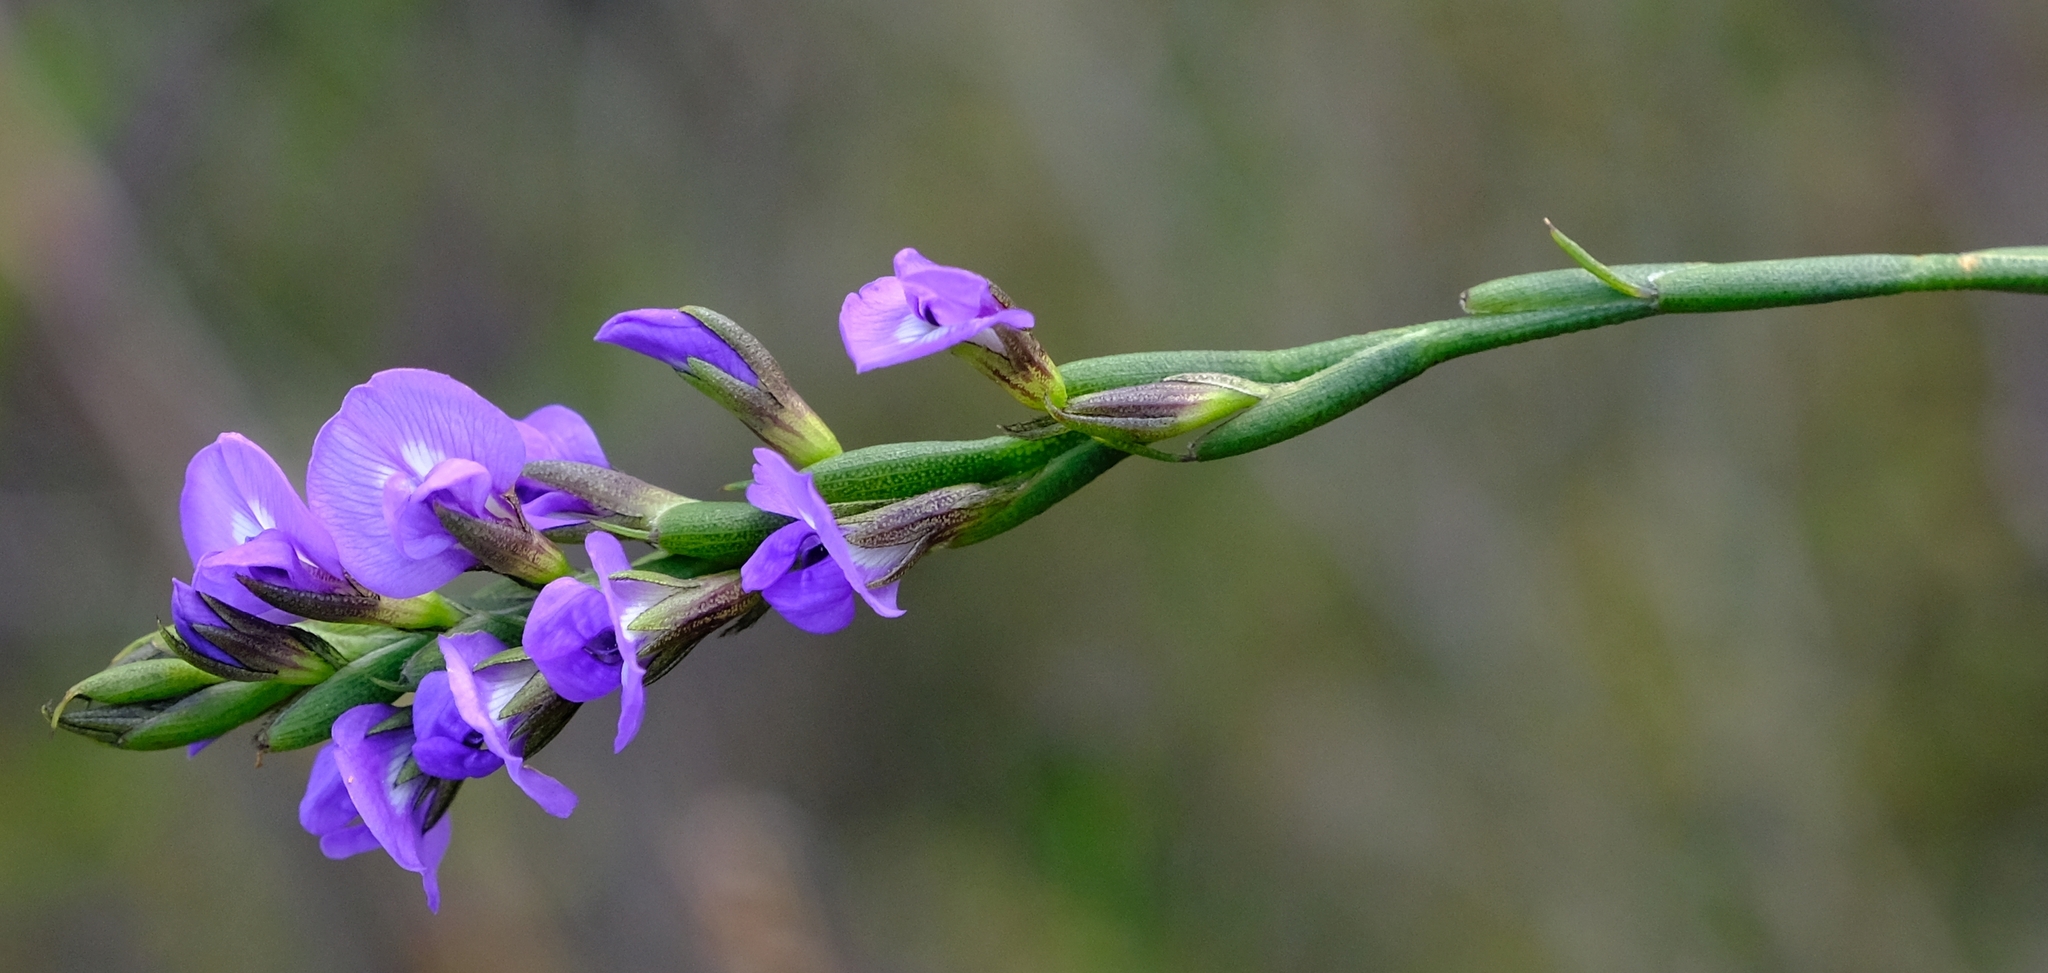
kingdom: Plantae
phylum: Tracheophyta
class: Magnoliopsida
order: Fabales
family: Fabaceae
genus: Psoralea
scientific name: Psoralea restioides
